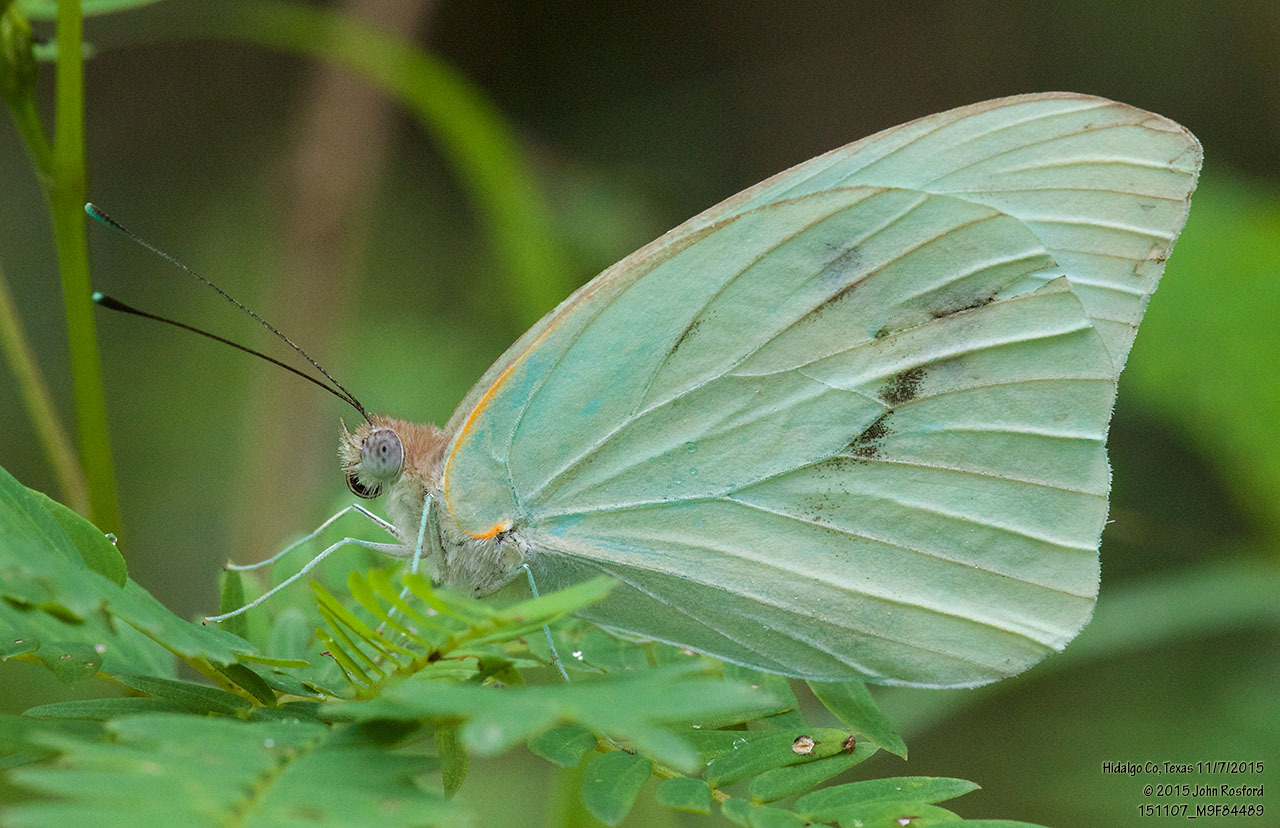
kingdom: Animalia
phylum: Arthropoda
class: Insecta
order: Lepidoptera
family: Pieridae
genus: Ganyra
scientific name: Ganyra josephina
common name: Giant white
